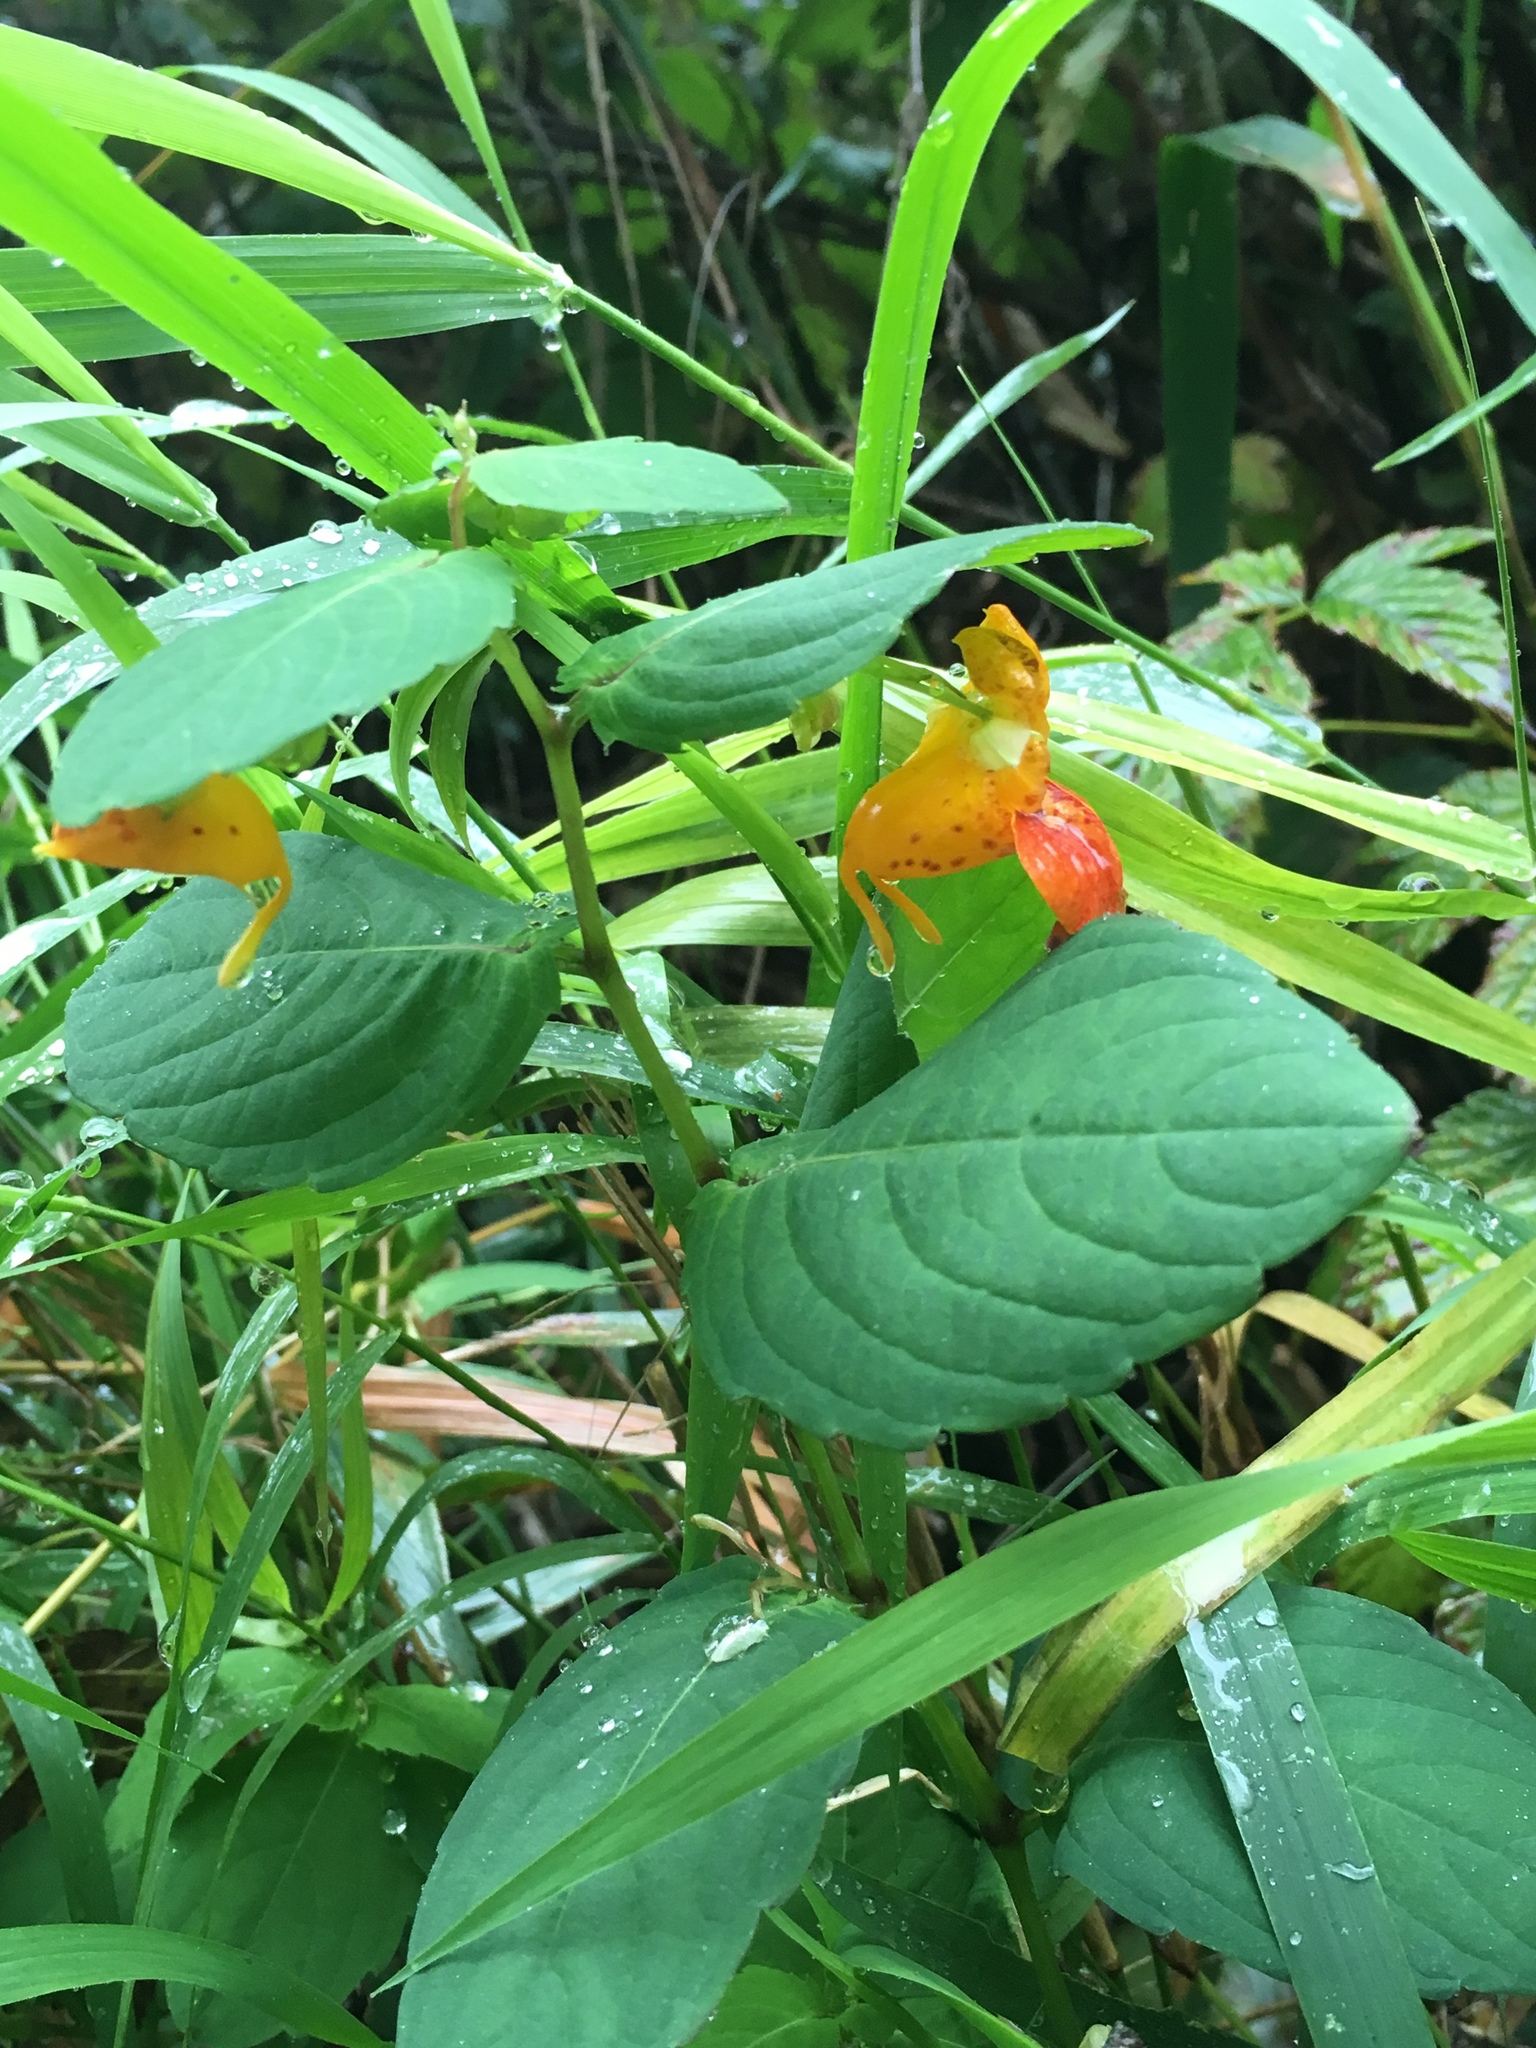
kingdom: Plantae
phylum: Tracheophyta
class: Magnoliopsida
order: Ericales
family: Balsaminaceae
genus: Impatiens
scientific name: Impatiens capensis
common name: Orange balsam
